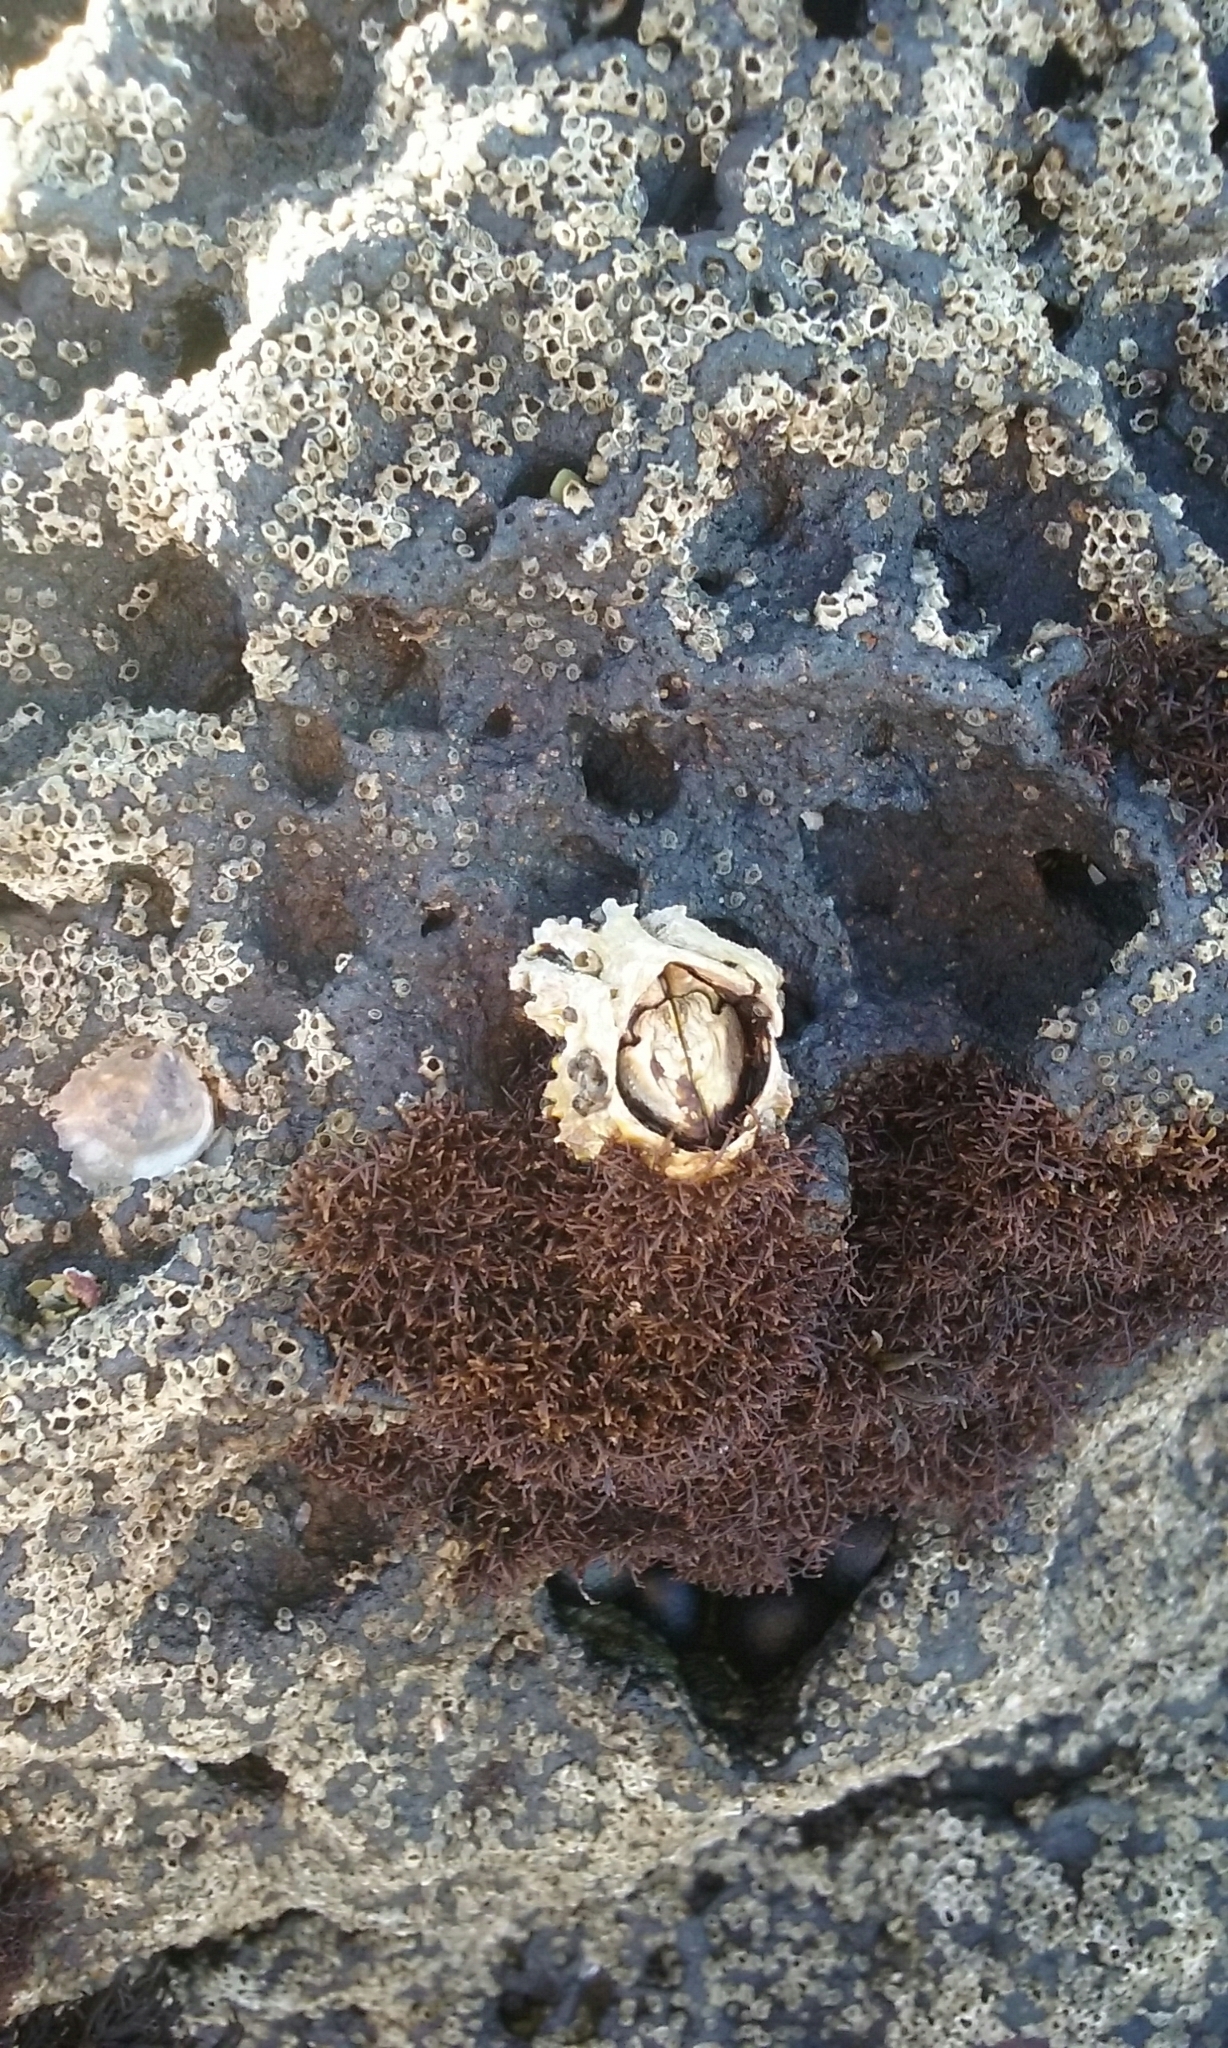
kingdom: Animalia
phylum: Arthropoda
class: Maxillopoda
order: Sessilia
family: Tetraclitidae
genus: Epopella
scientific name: Epopella plicata
